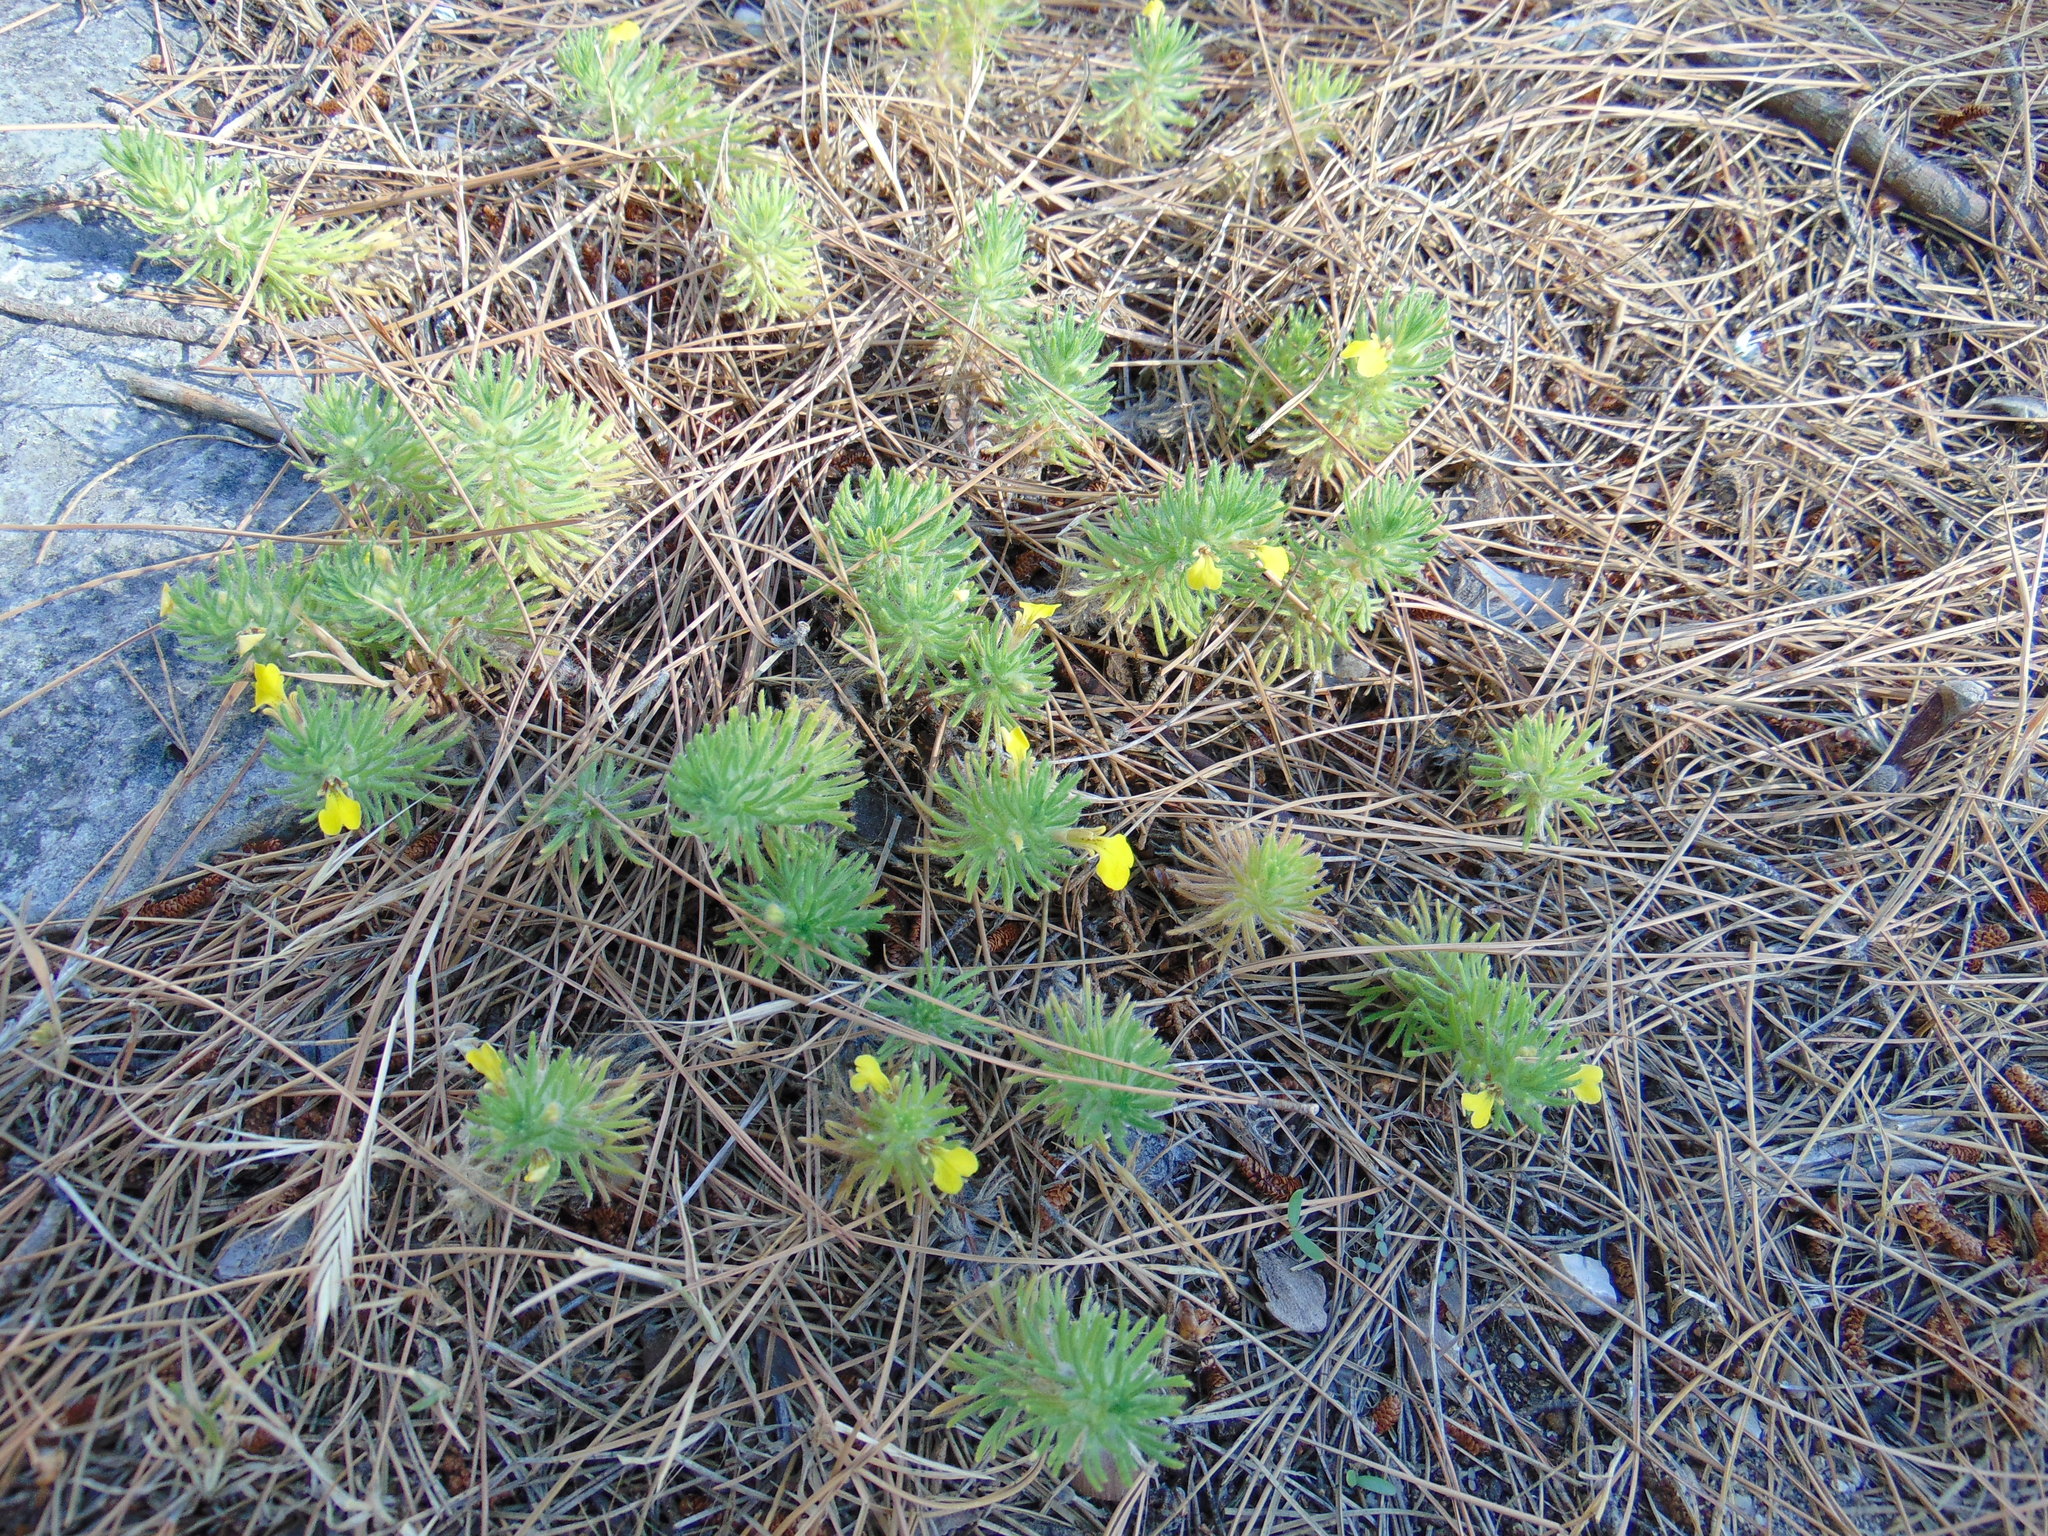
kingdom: Plantae
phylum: Tracheophyta
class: Magnoliopsida
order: Lamiales
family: Lamiaceae
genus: Ajuga
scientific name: Ajuga chamaepitys
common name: Ground-pine
